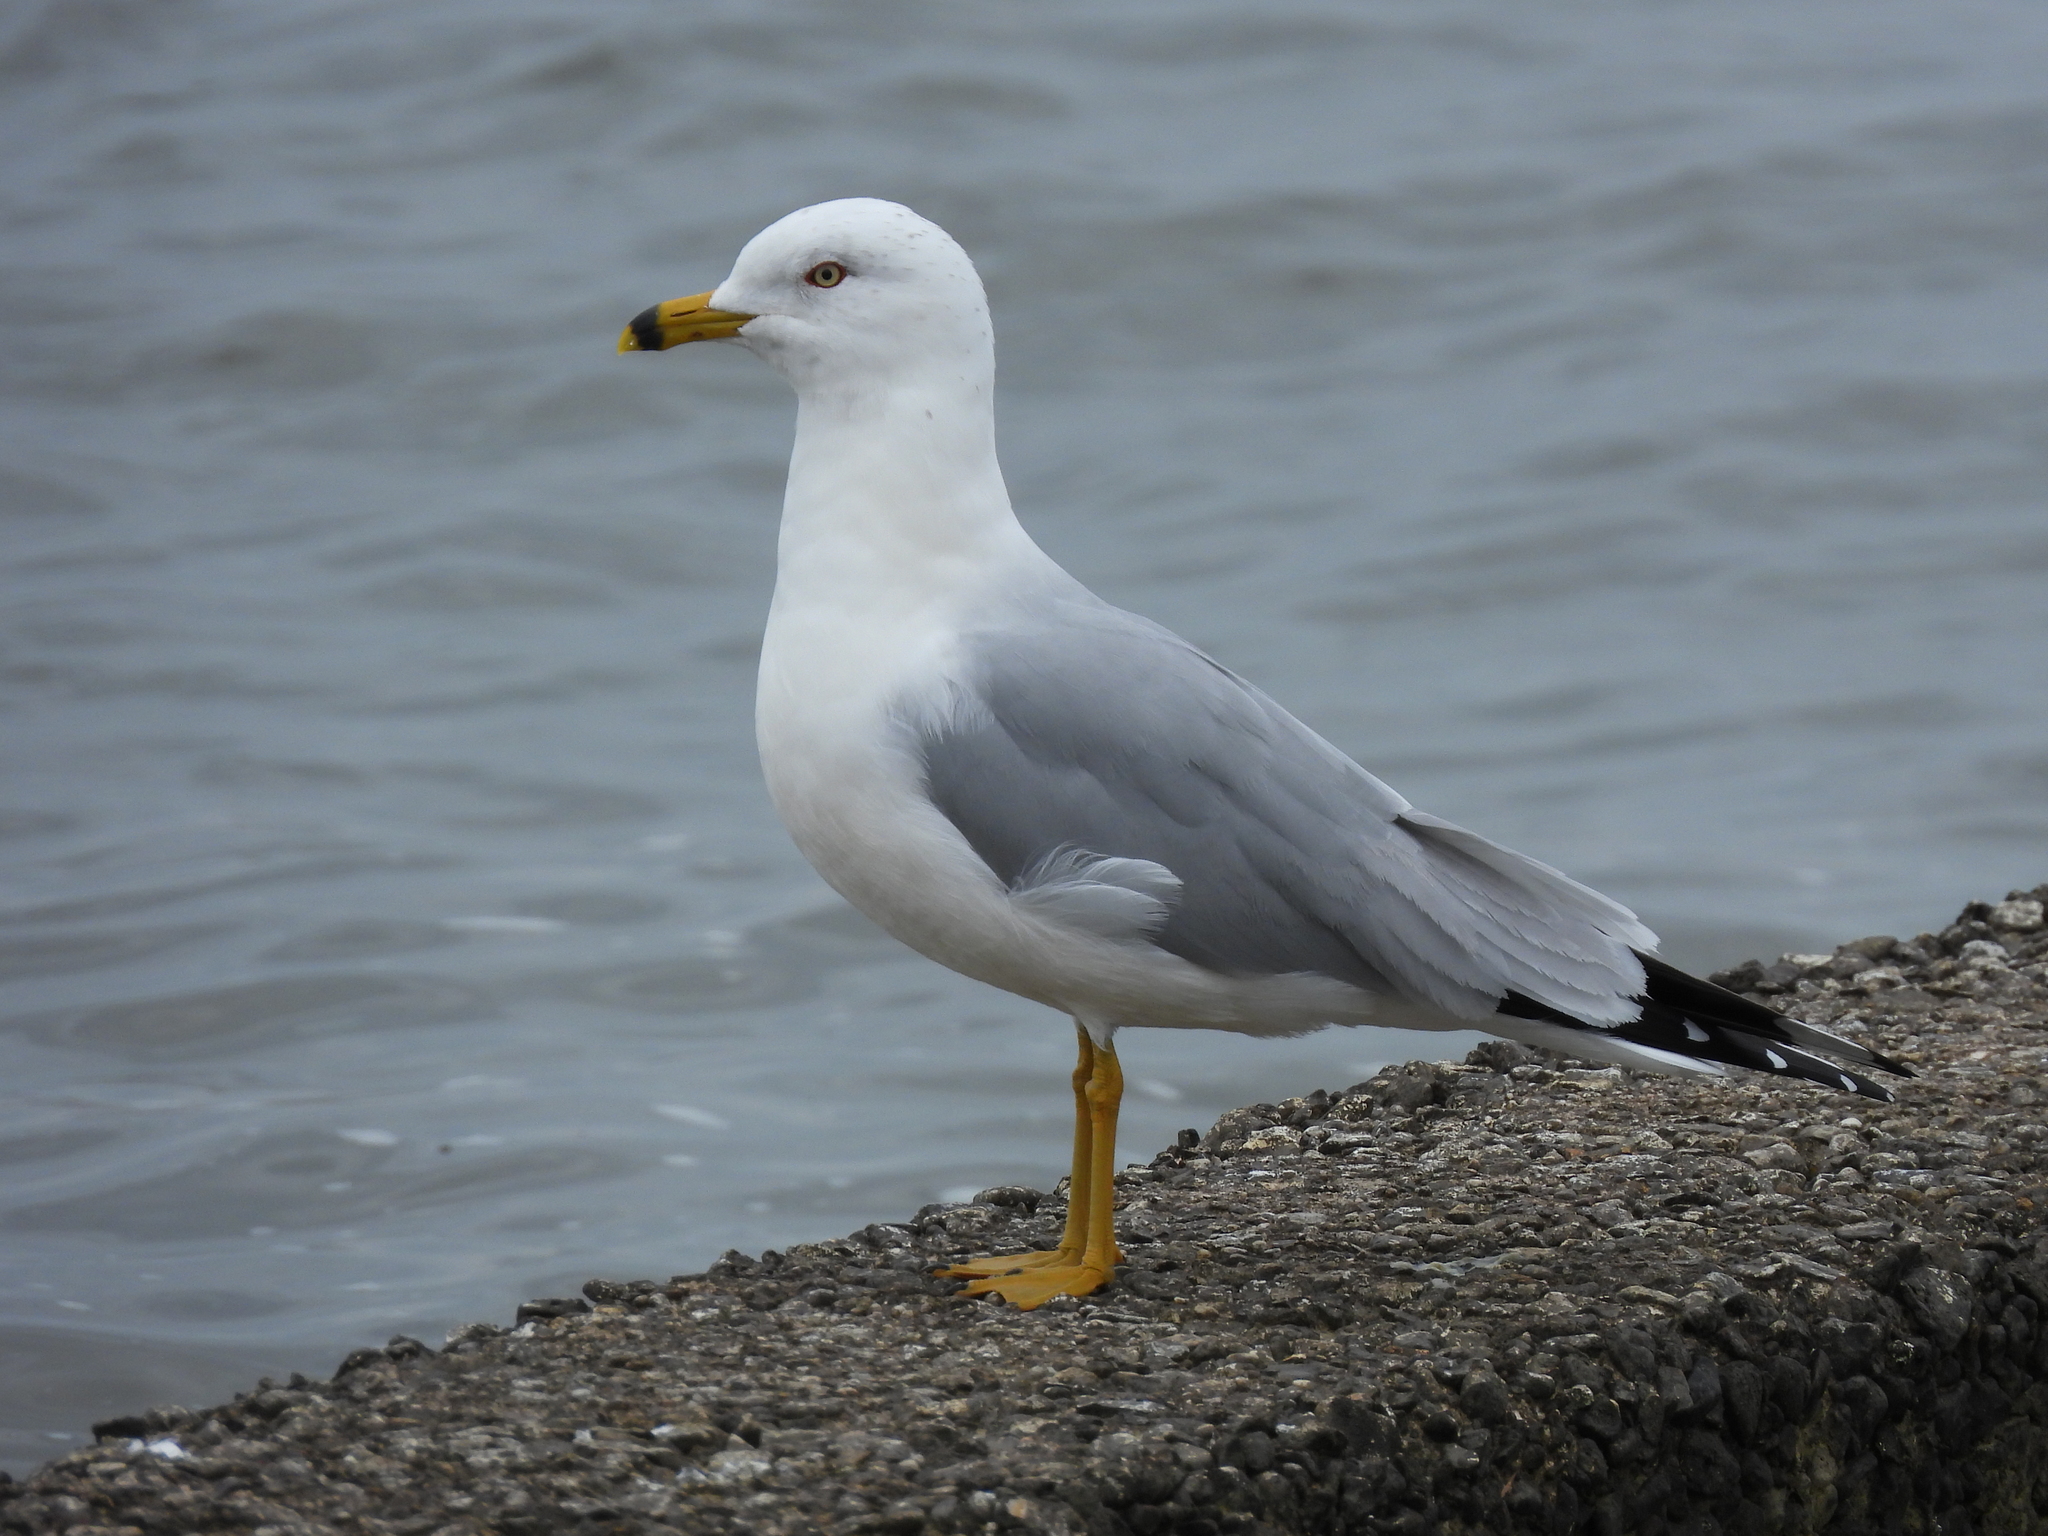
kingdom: Animalia
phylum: Chordata
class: Aves
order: Charadriiformes
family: Laridae
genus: Larus
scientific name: Larus delawarensis
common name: Ring-billed gull
